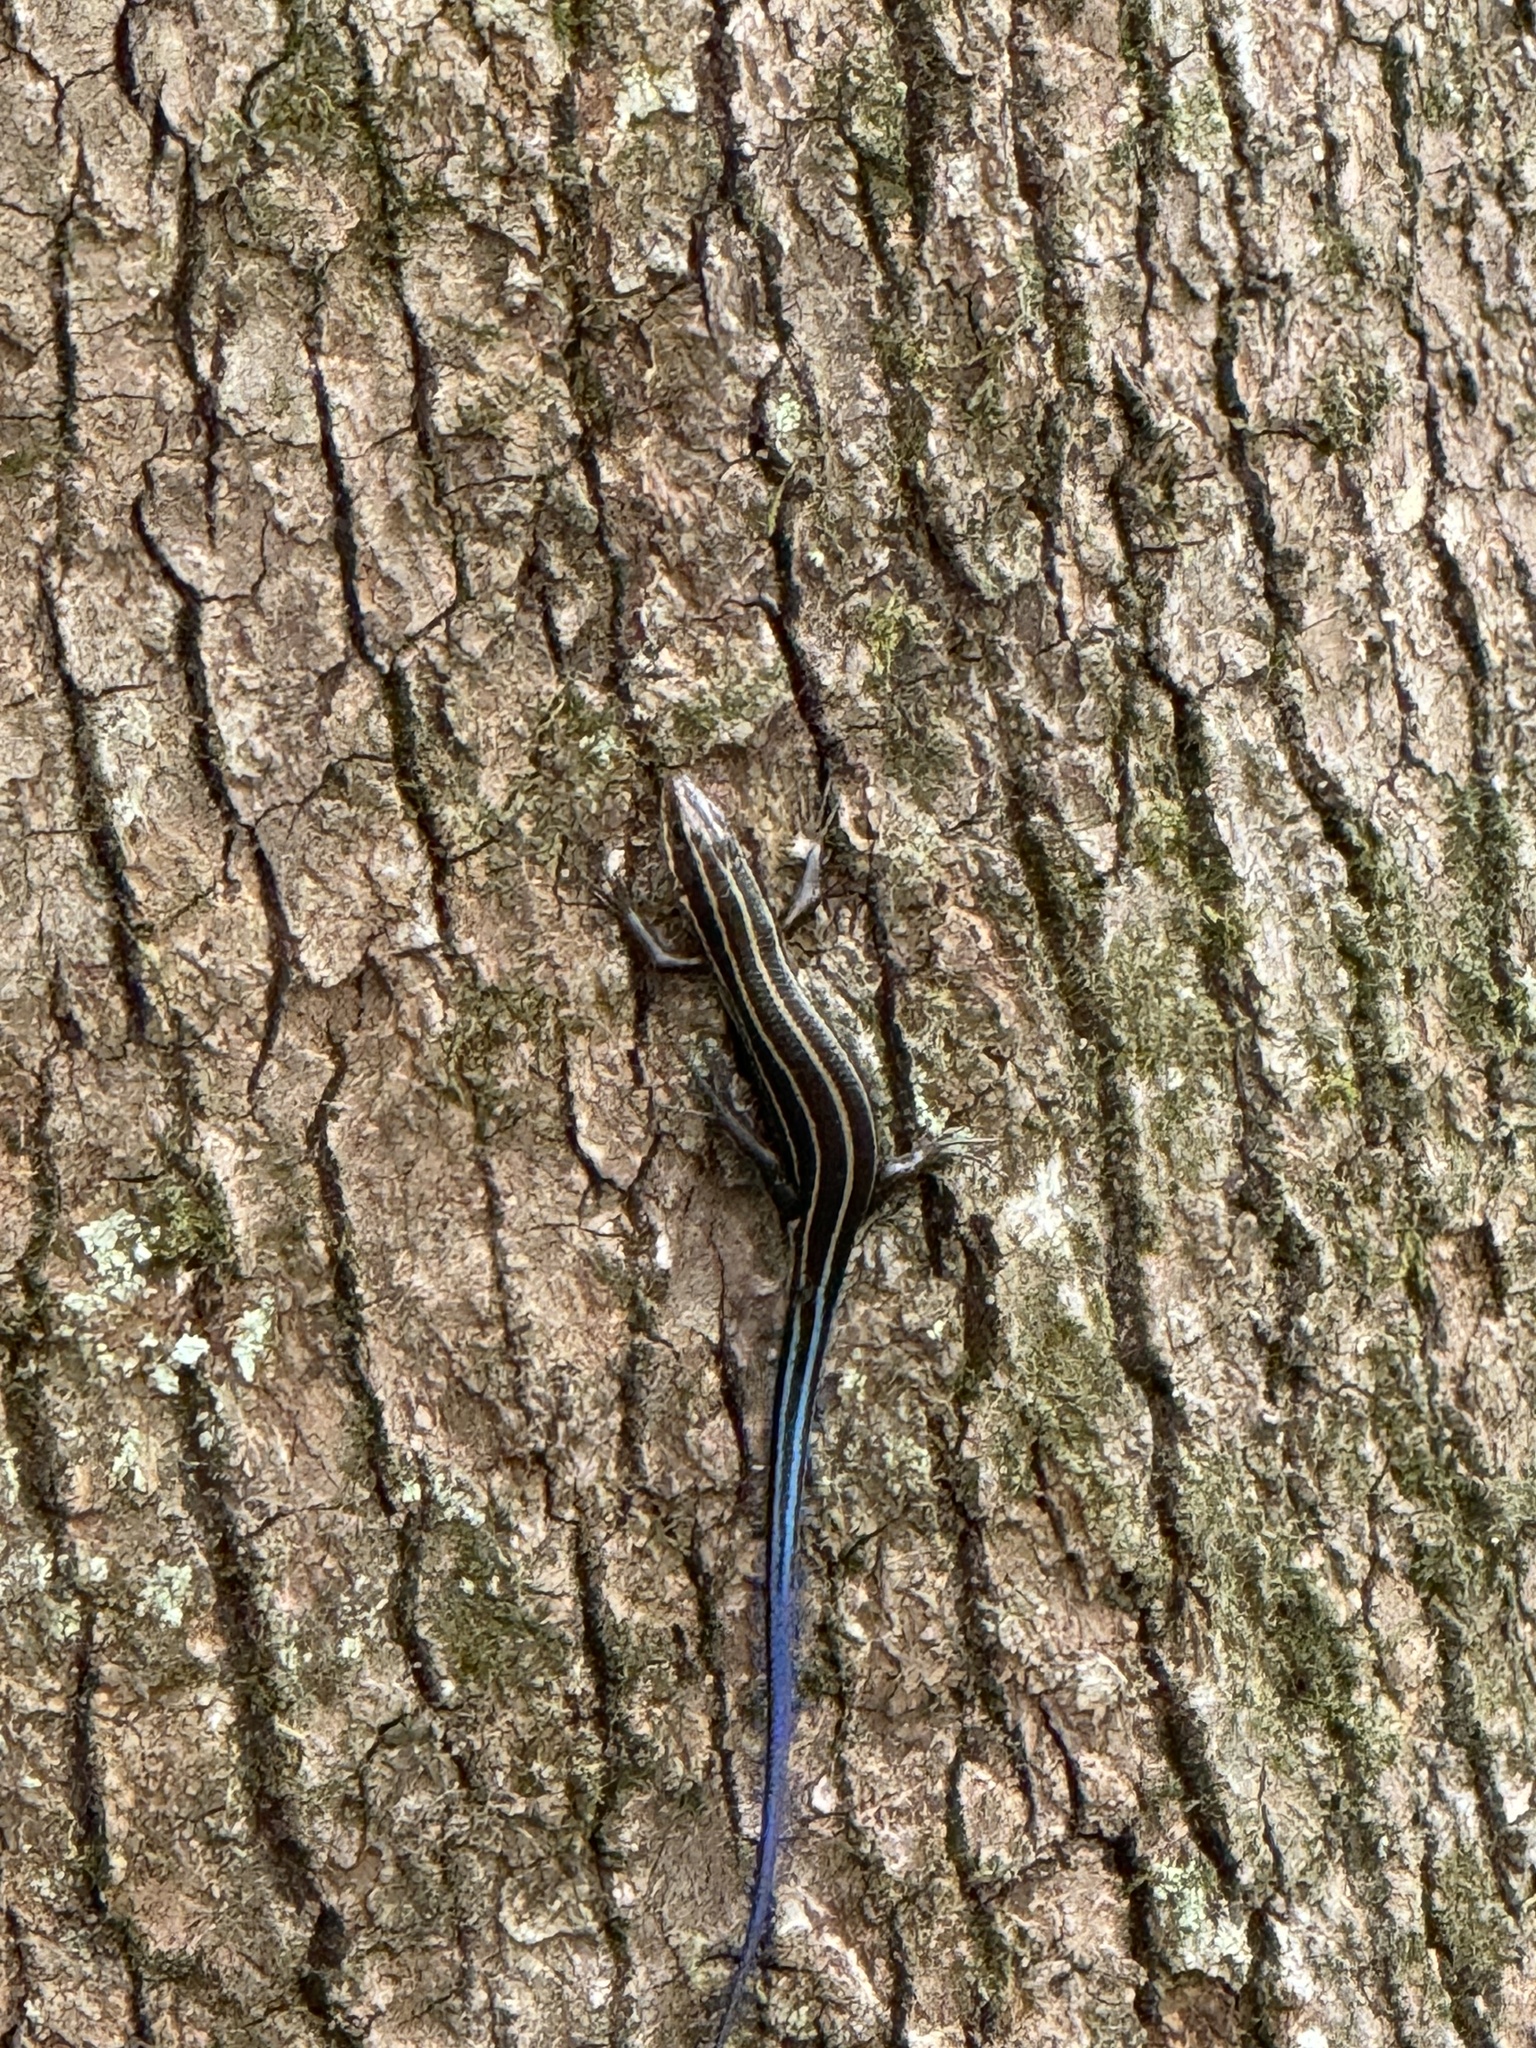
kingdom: Animalia
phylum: Chordata
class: Squamata
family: Scincidae
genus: Plestiodon
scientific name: Plestiodon fasciatus
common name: Five-lined skink
